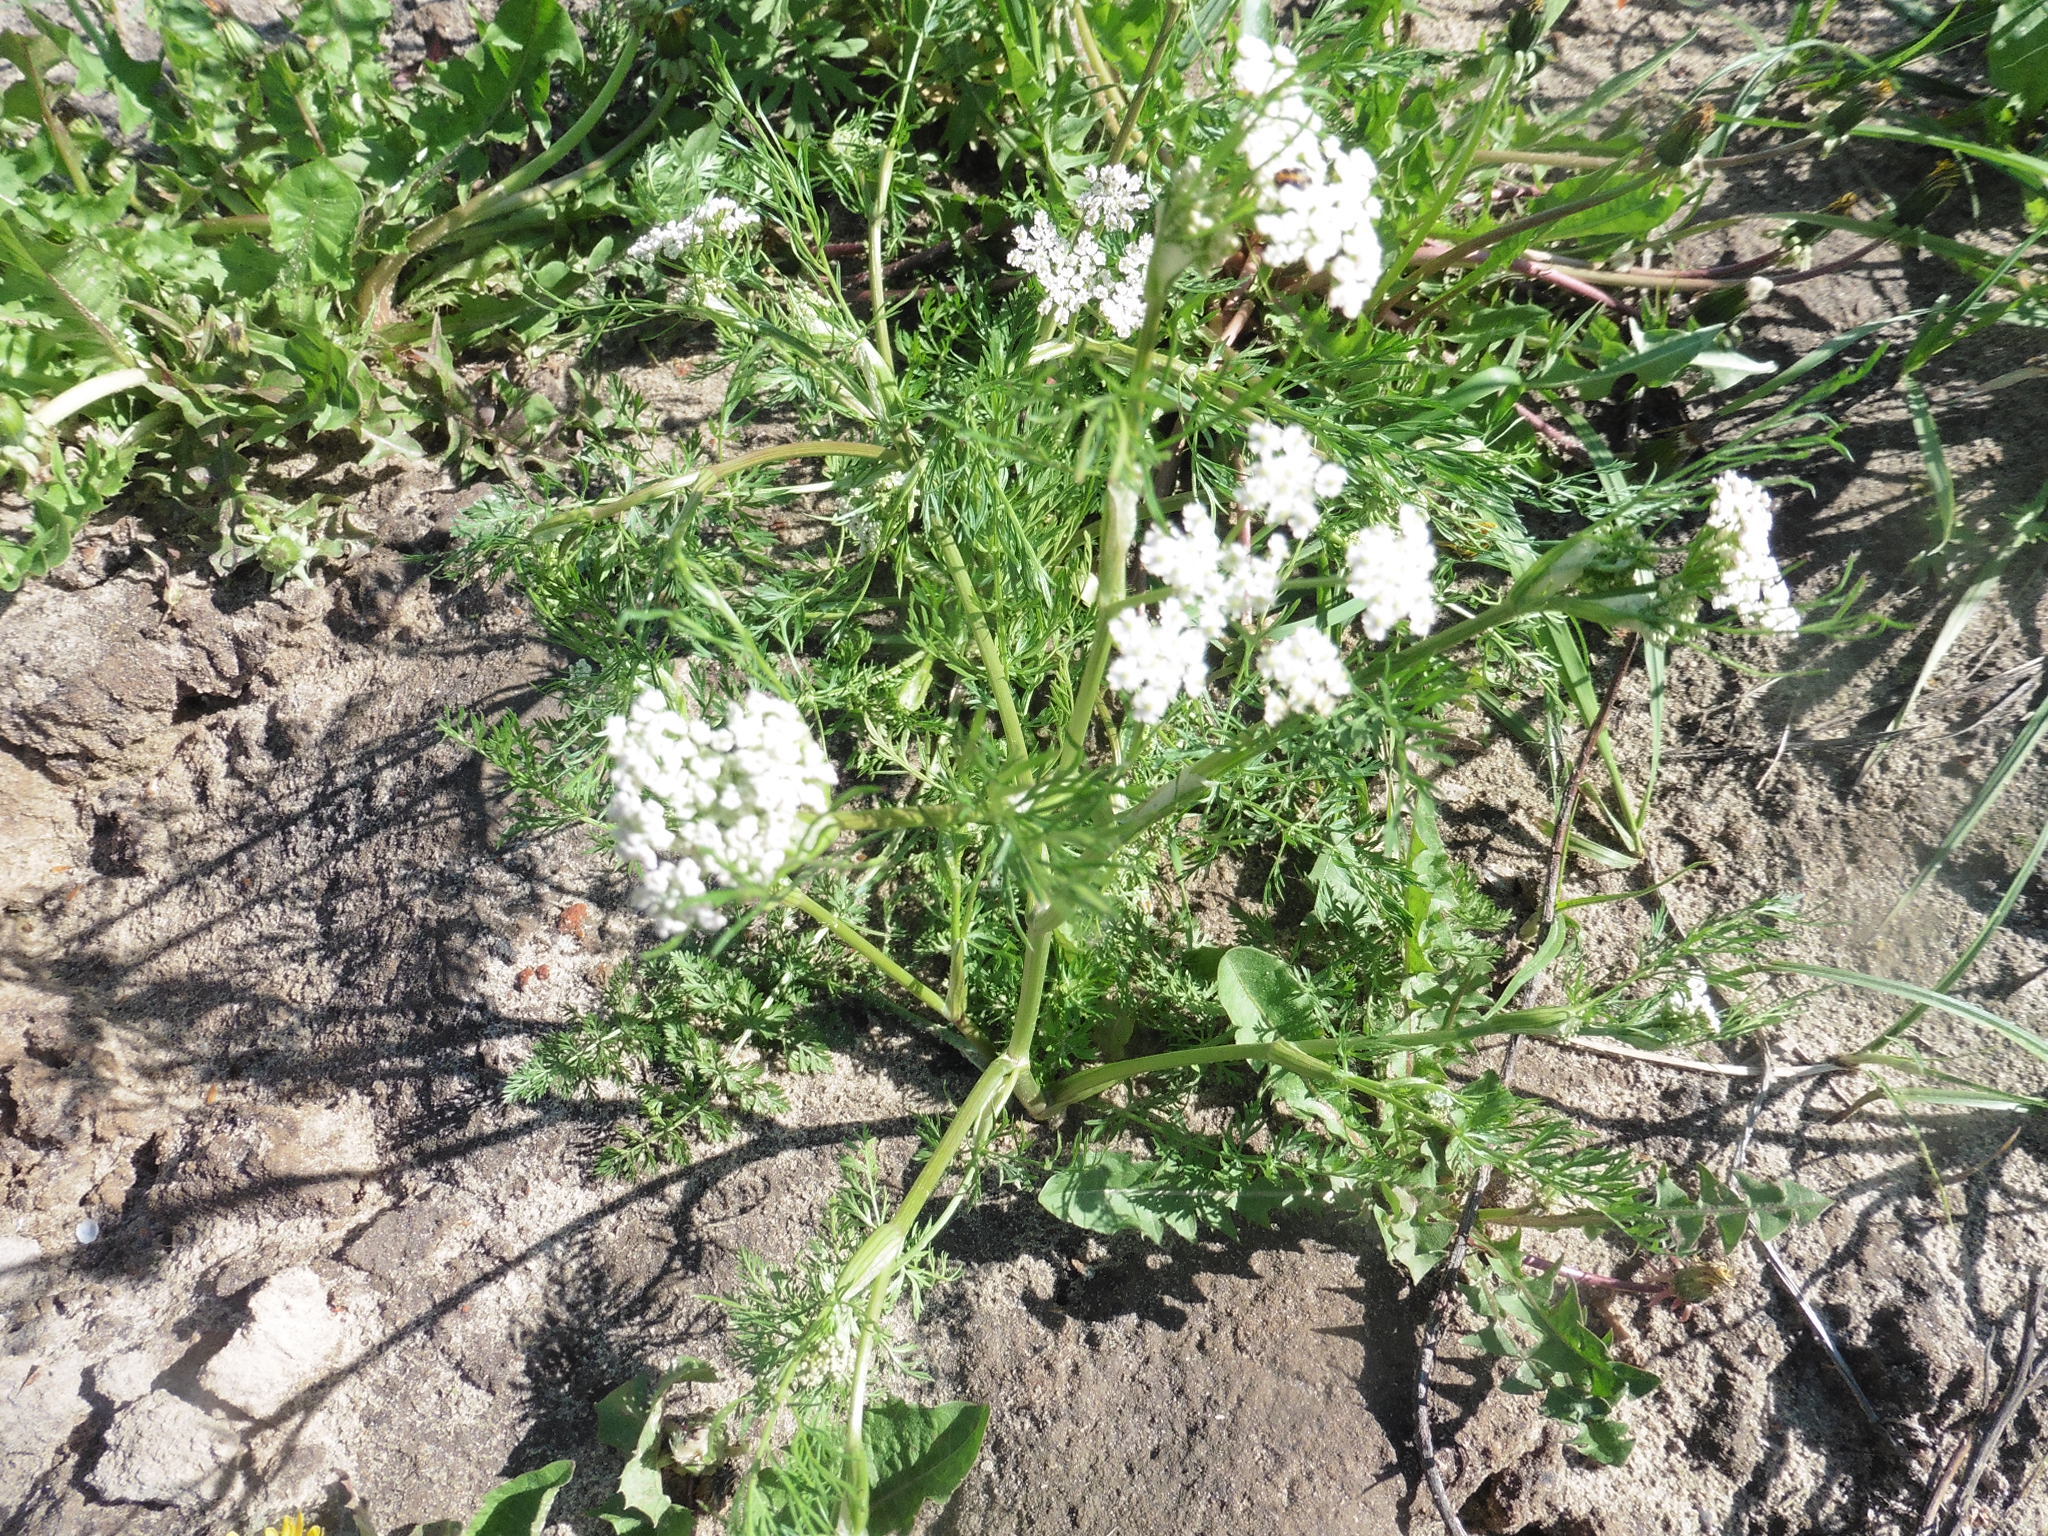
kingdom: Plantae
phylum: Tracheophyta
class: Magnoliopsida
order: Apiales
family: Apiaceae
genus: Carum
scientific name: Carum carvi
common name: Caraway
